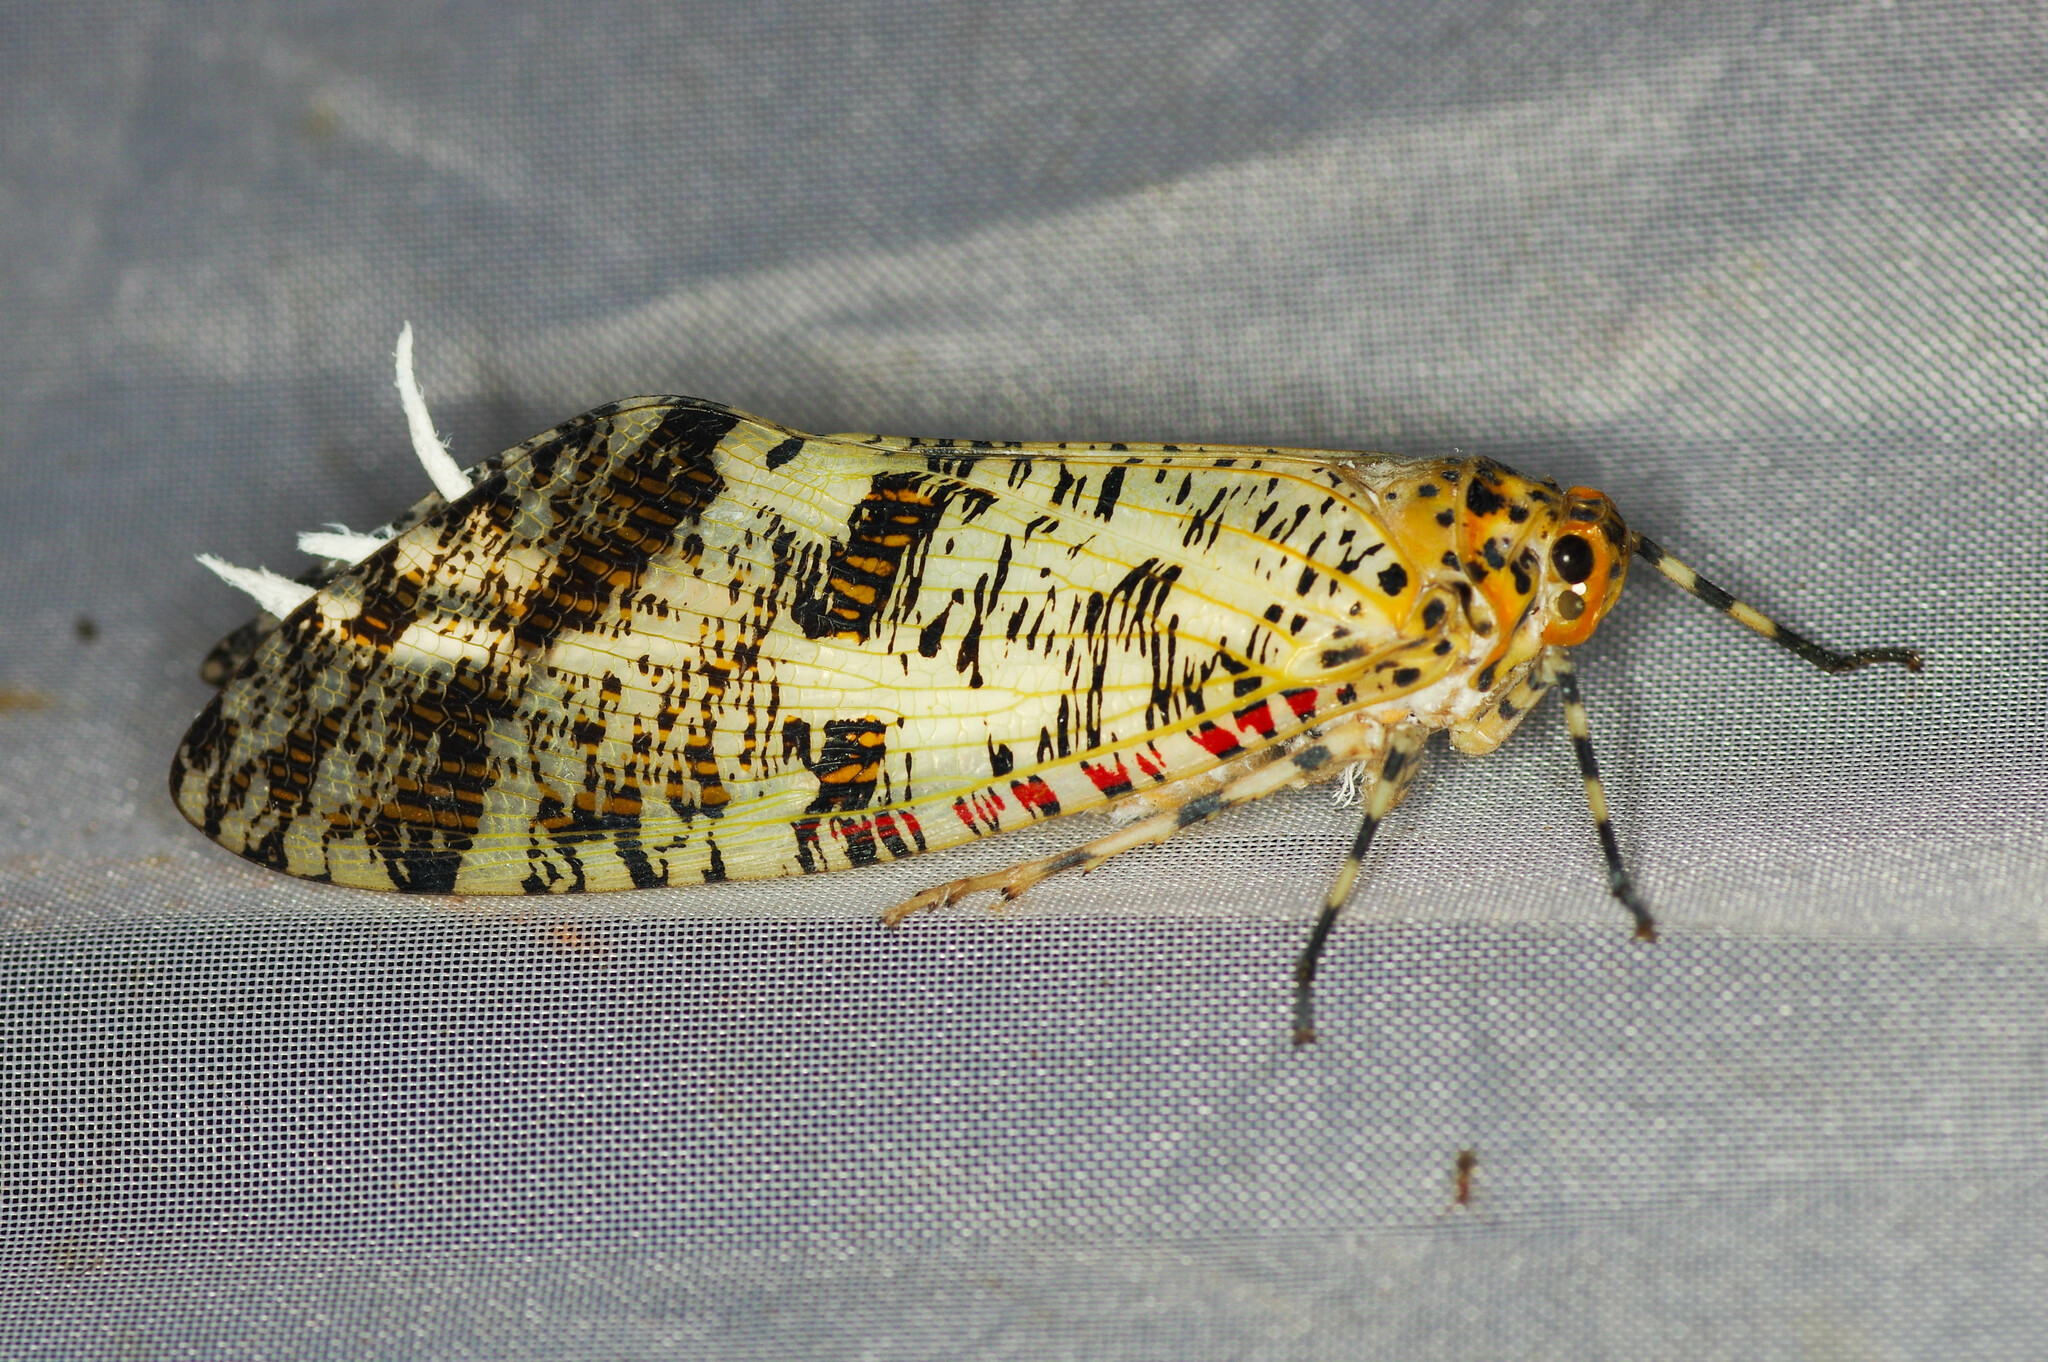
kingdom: Animalia
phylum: Arthropoda
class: Insecta
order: Hemiptera
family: Fulgoridae
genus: Phenax
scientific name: Phenax variegata
